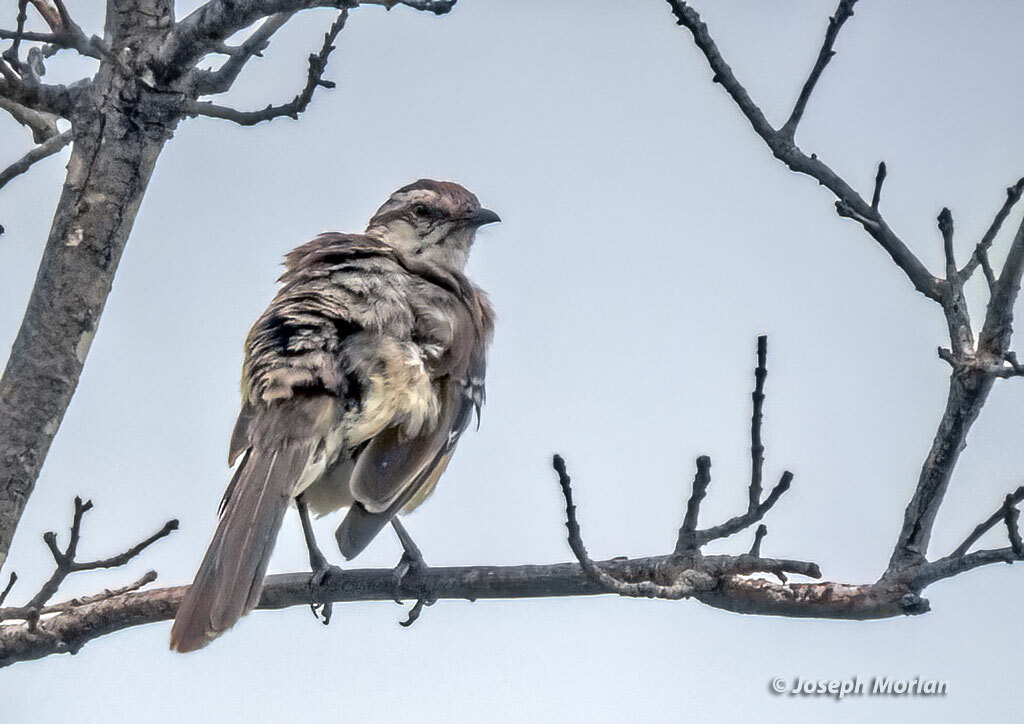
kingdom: Animalia
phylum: Chordata
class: Aves
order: Passeriformes
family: Mimidae
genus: Mimus
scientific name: Mimus saturninus
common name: Chalk-browed mockingbird
